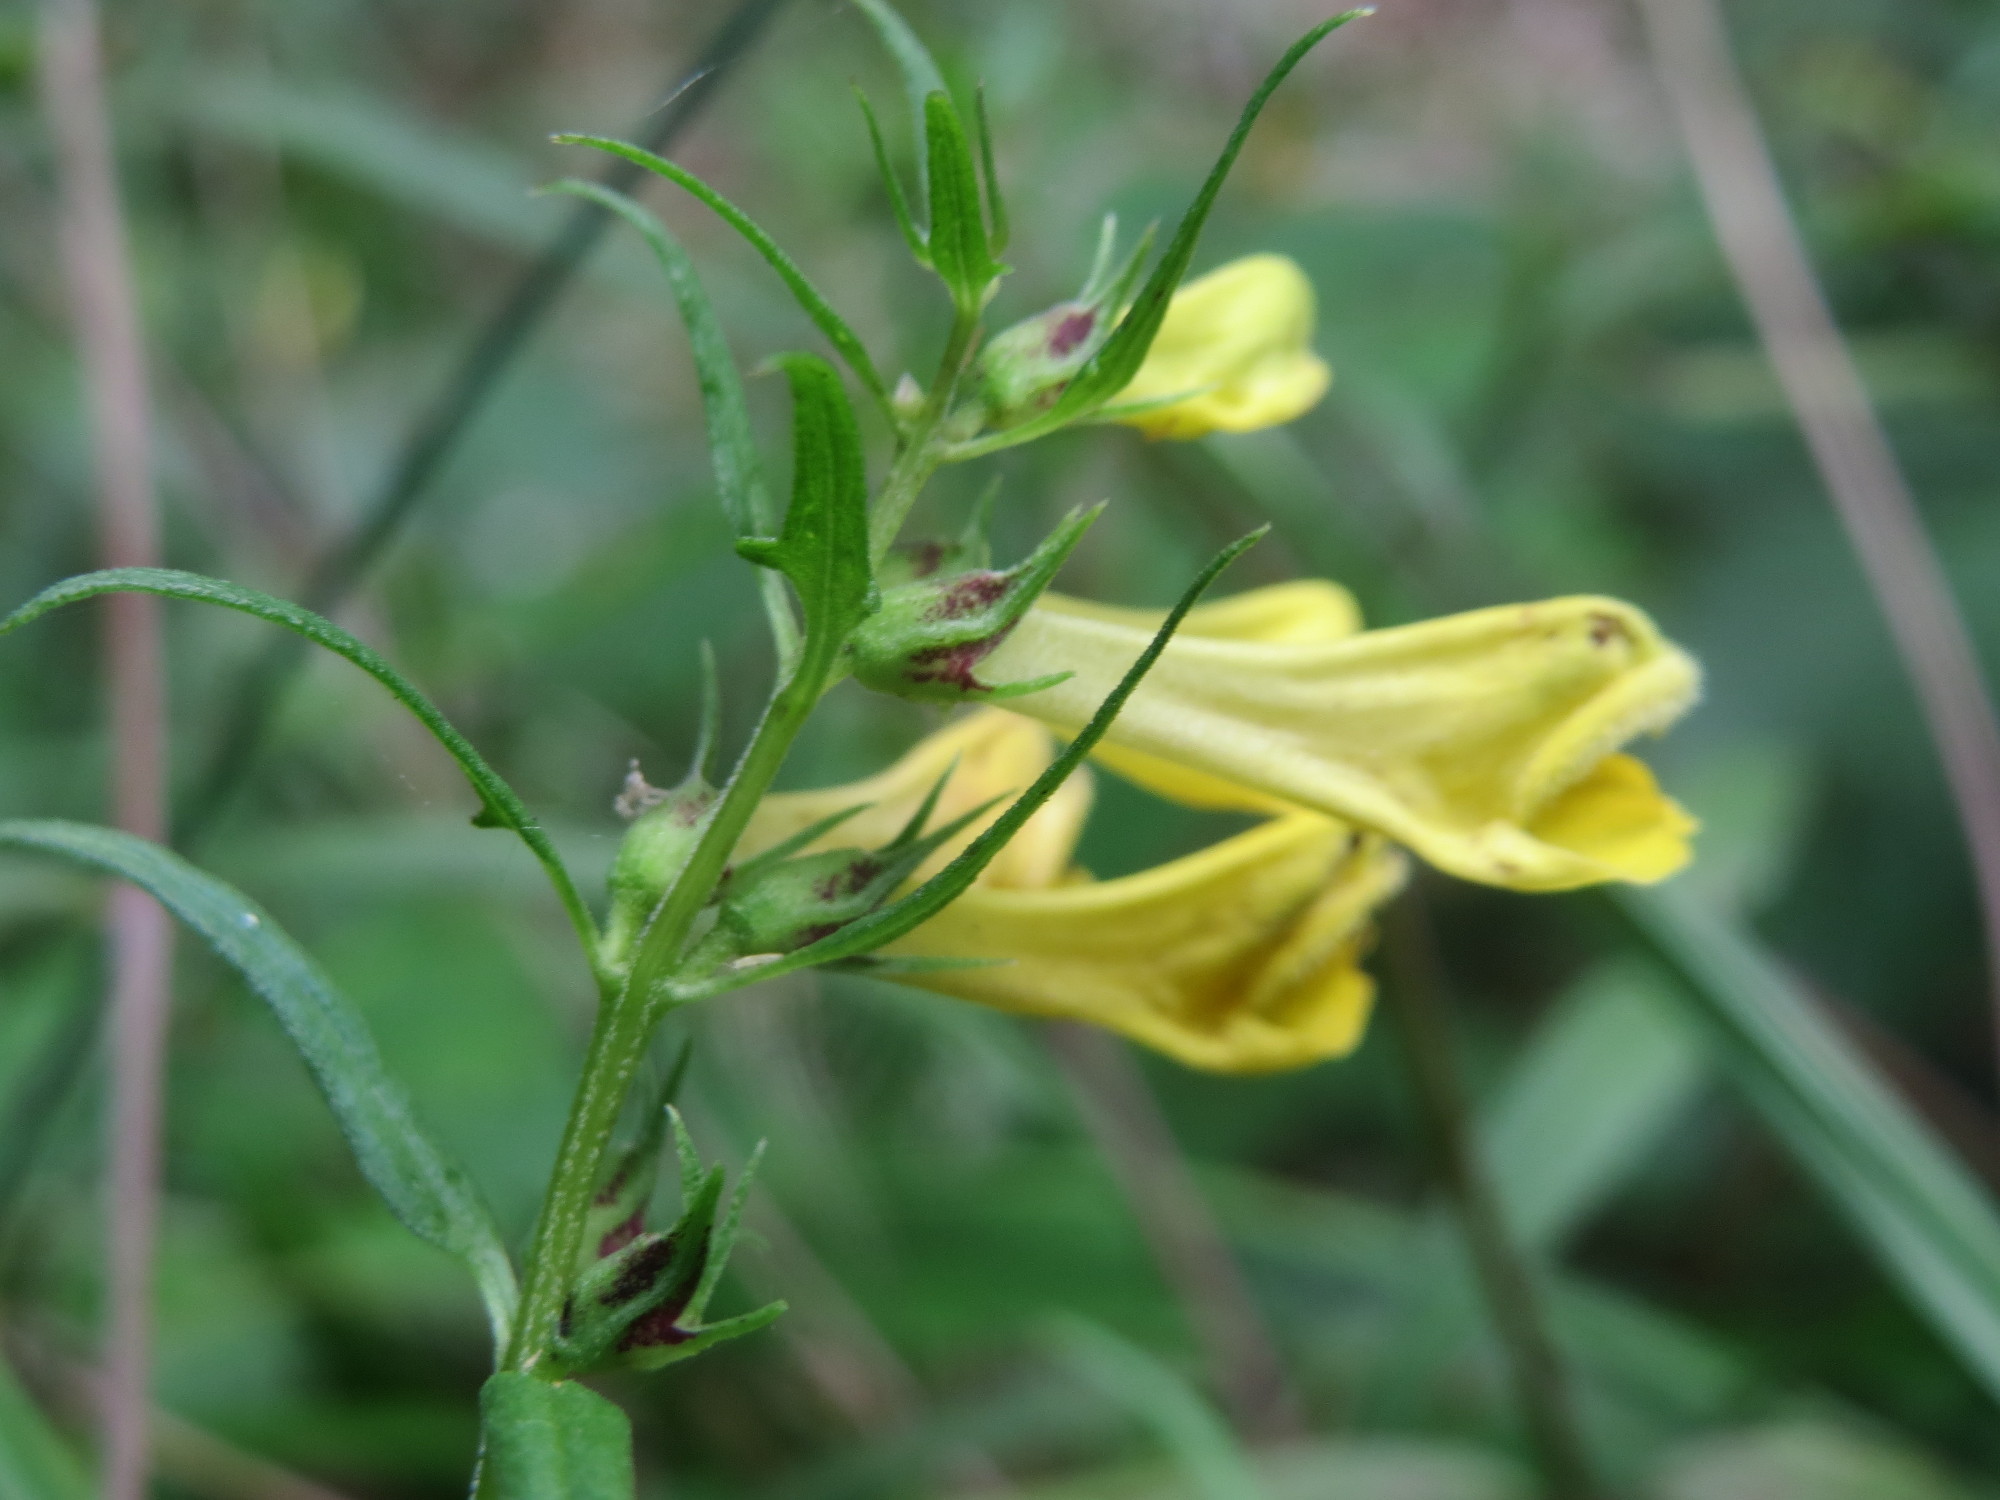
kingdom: Plantae
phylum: Tracheophyta
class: Magnoliopsida
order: Lamiales
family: Orobanchaceae
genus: Melampyrum
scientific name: Melampyrum pratense
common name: Common cow-wheat
